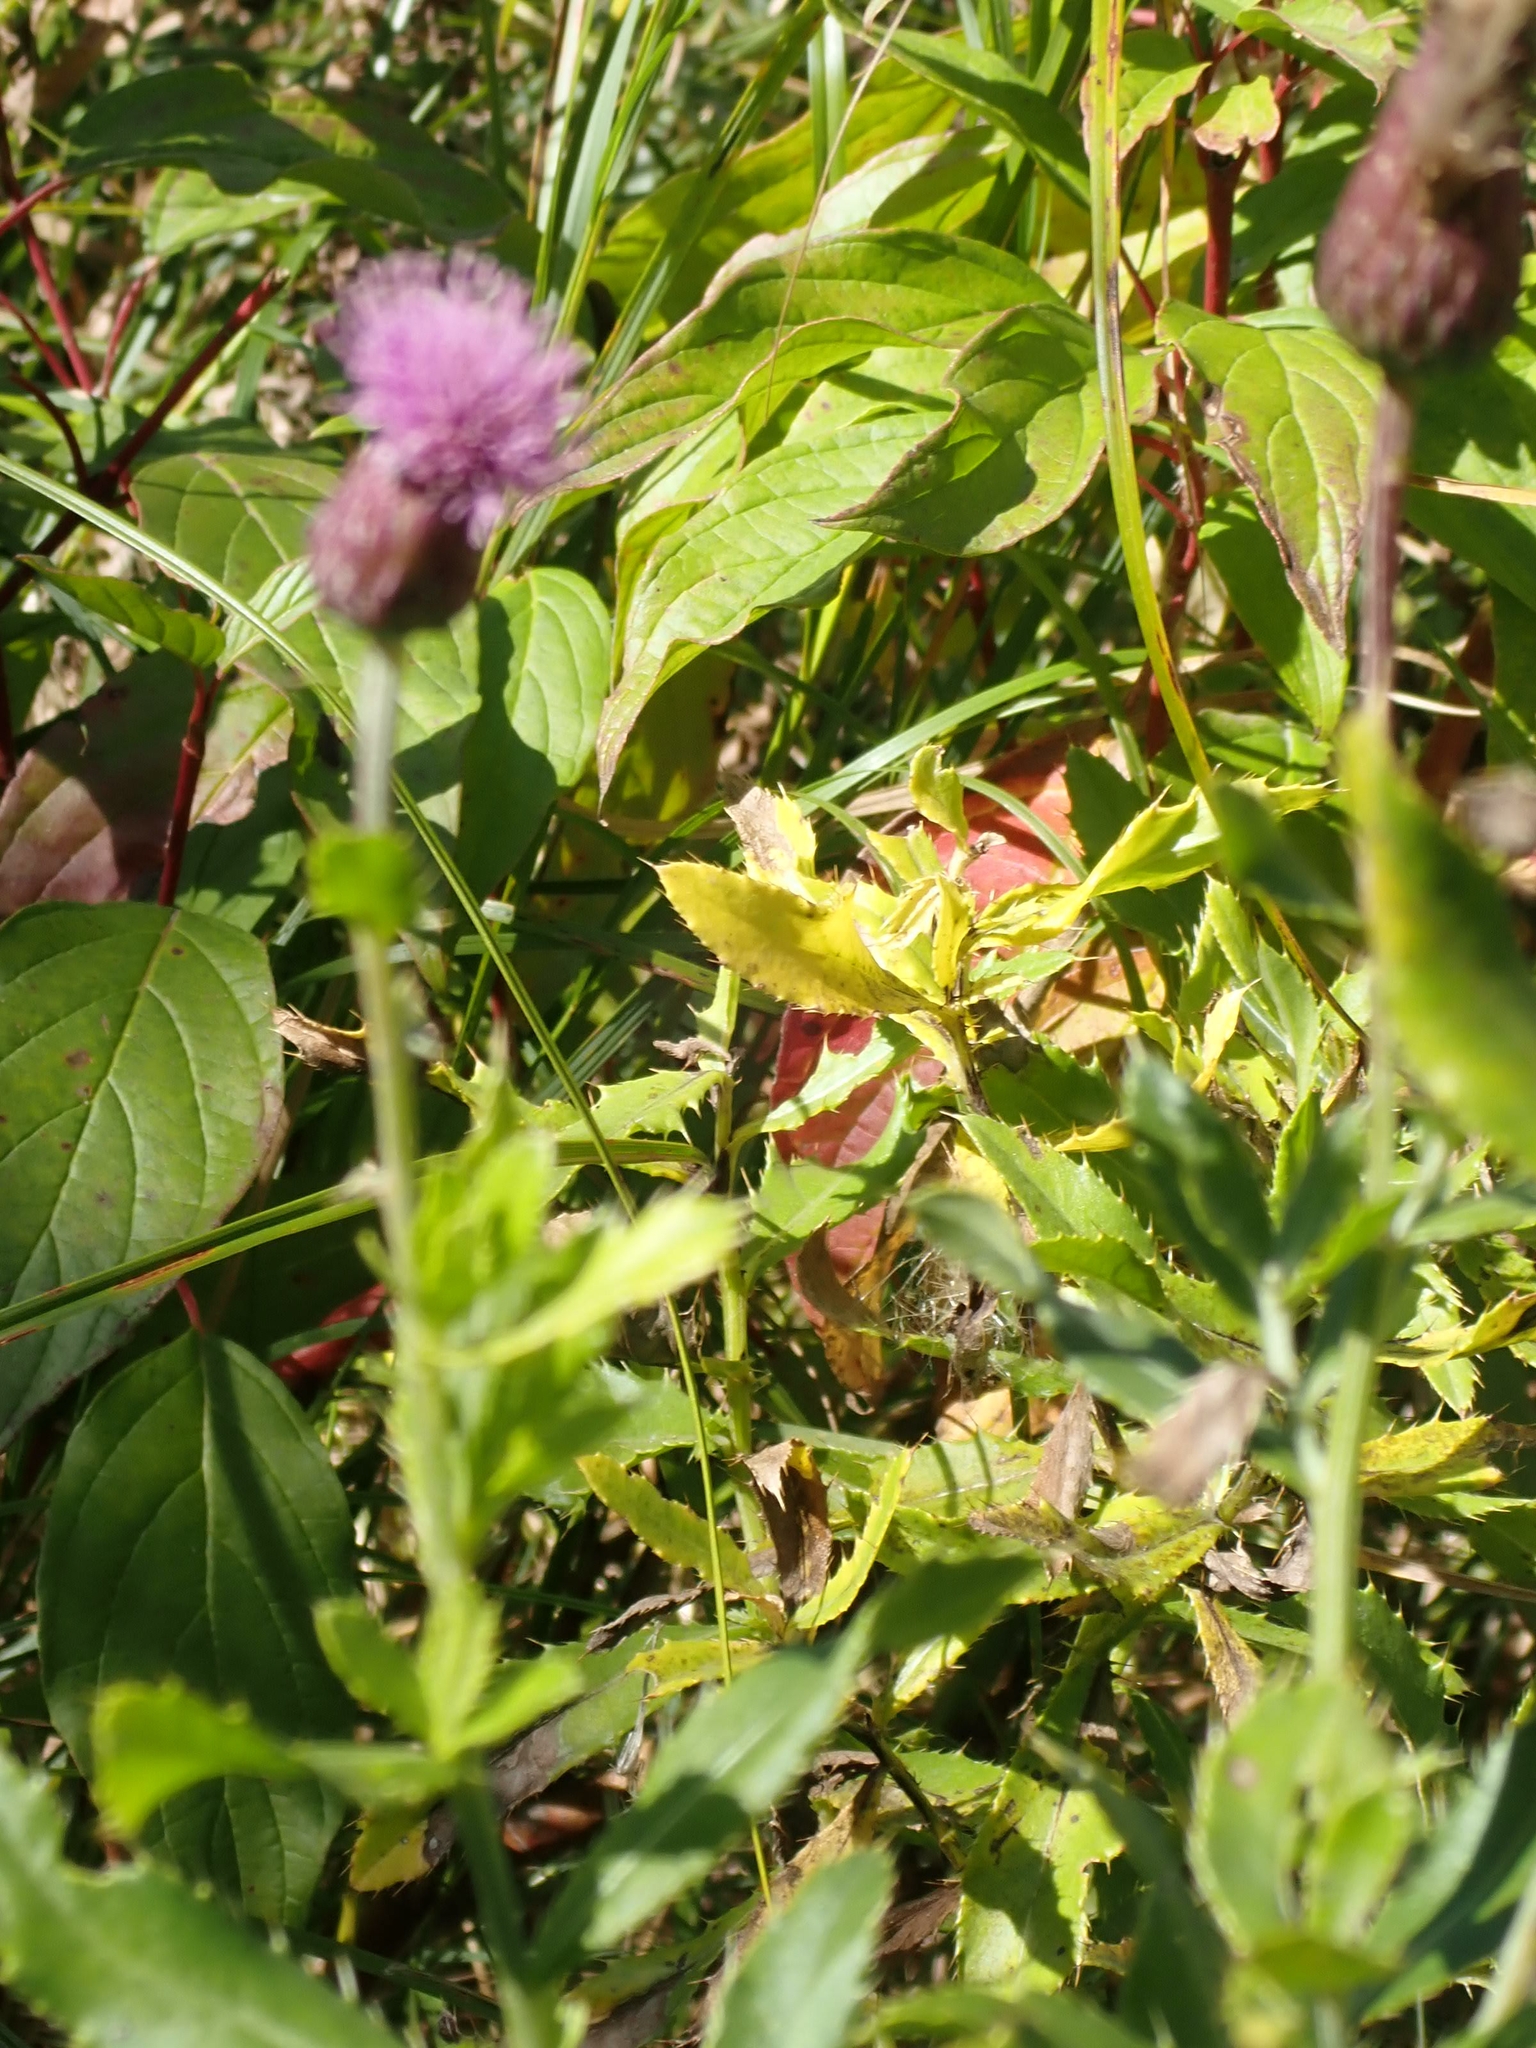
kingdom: Plantae
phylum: Tracheophyta
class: Magnoliopsida
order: Asterales
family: Asteraceae
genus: Cirsium
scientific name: Cirsium arvense
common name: Creeping thistle
